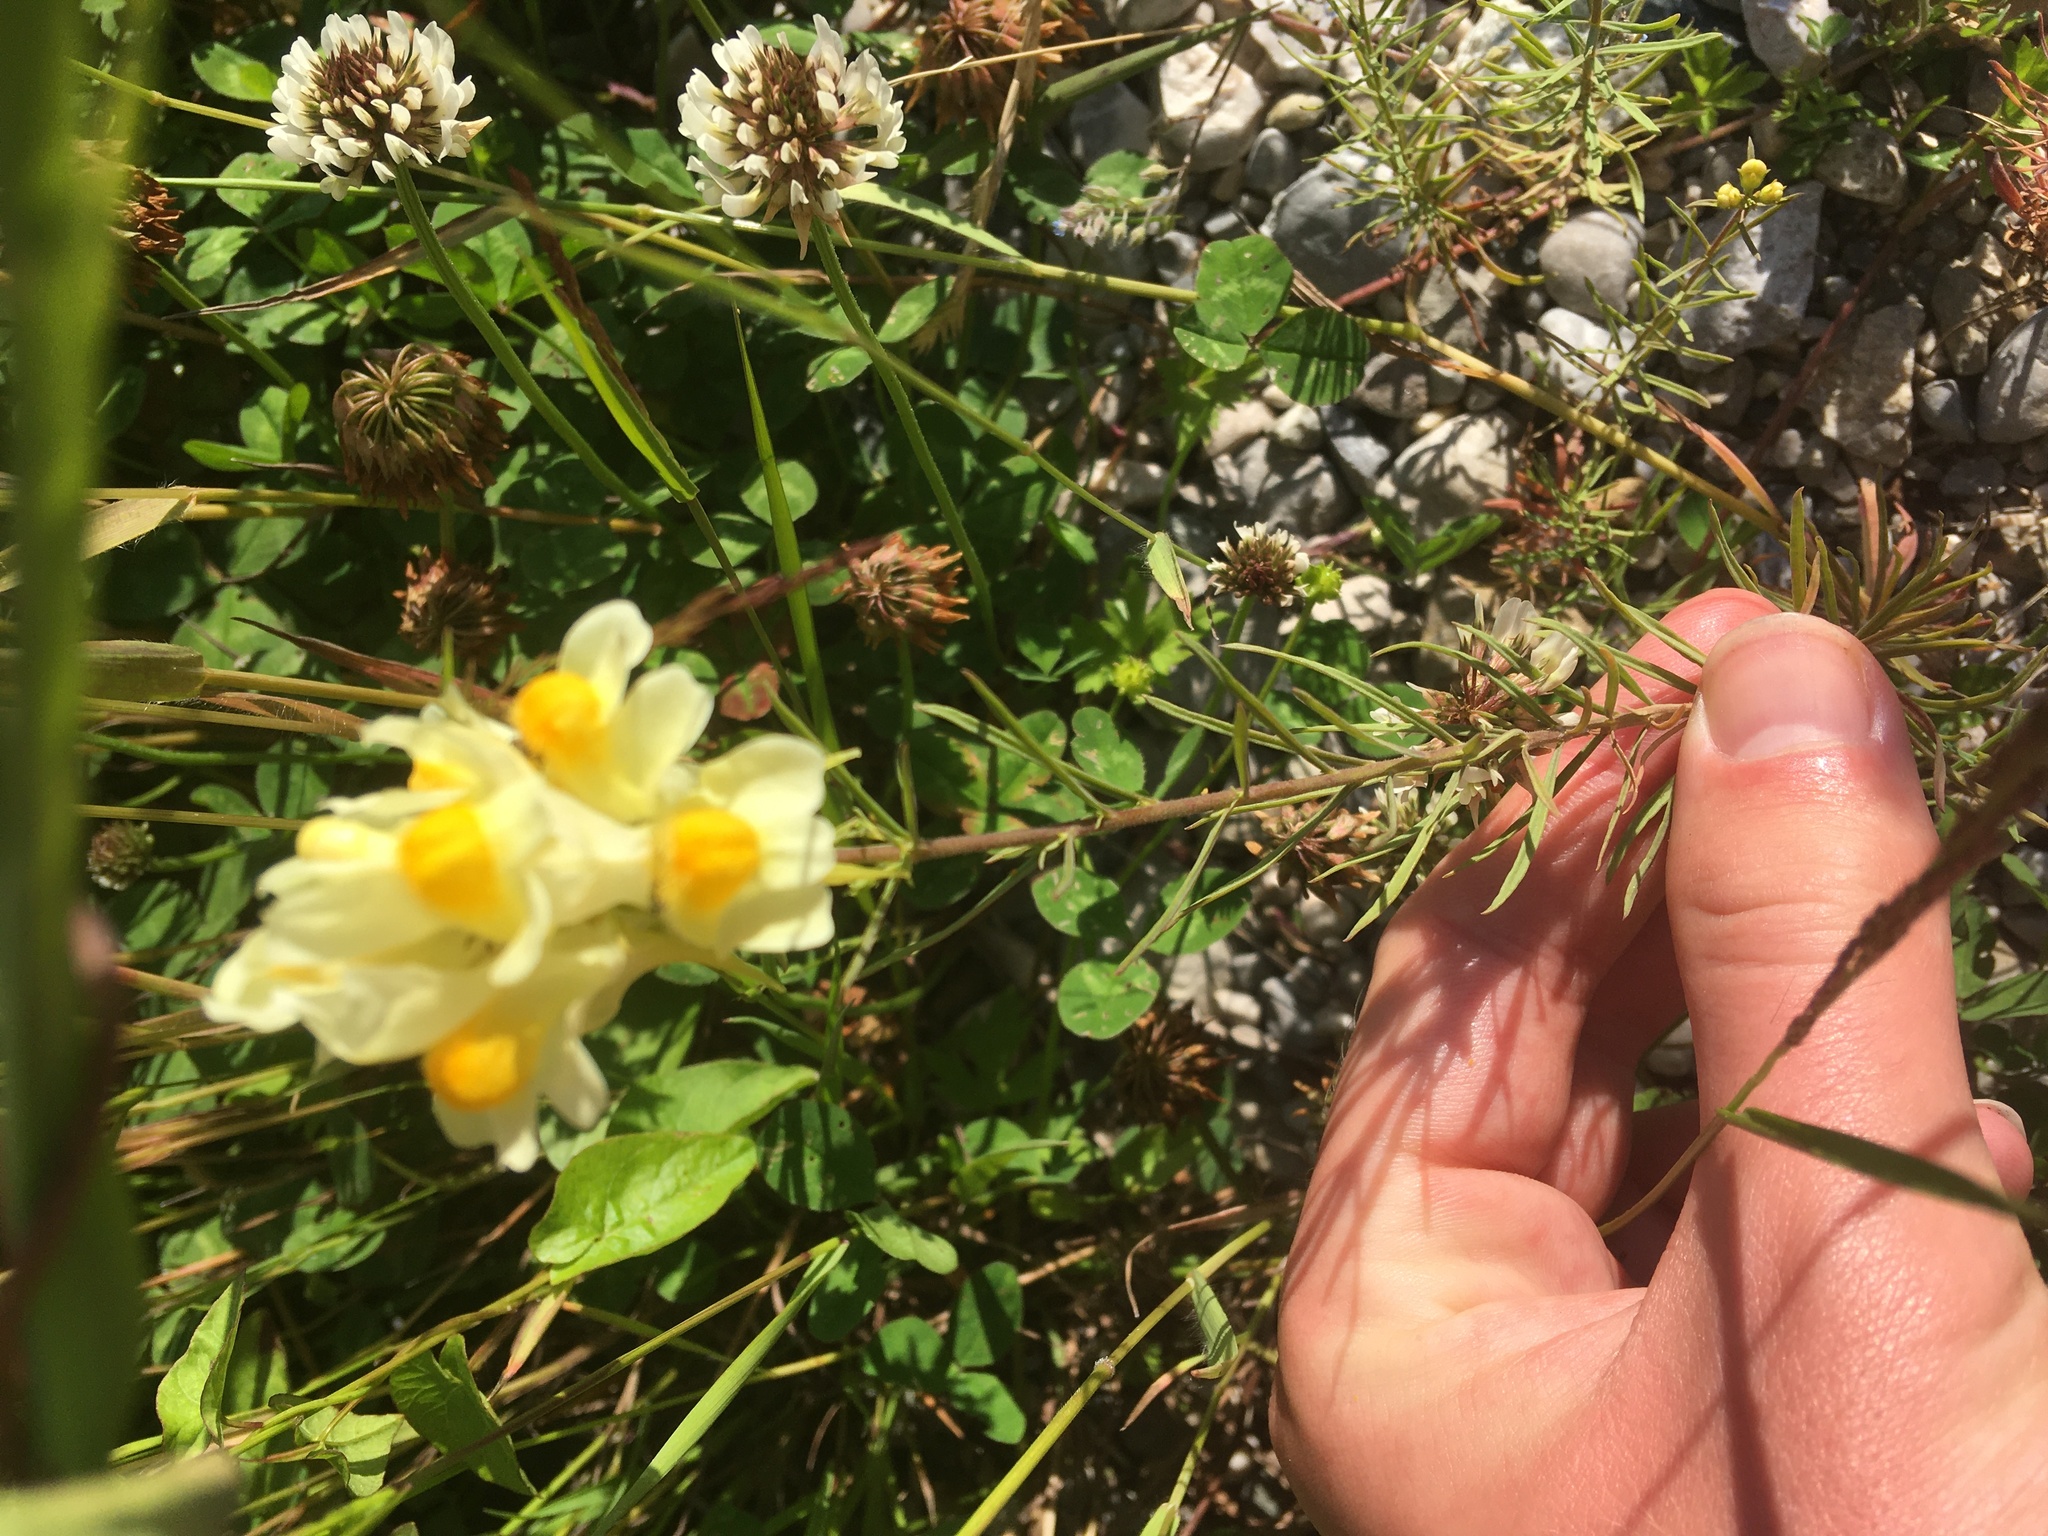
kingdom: Plantae
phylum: Tracheophyta
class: Magnoliopsida
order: Lamiales
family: Plantaginaceae
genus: Linaria
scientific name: Linaria vulgaris
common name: Butter and eggs
